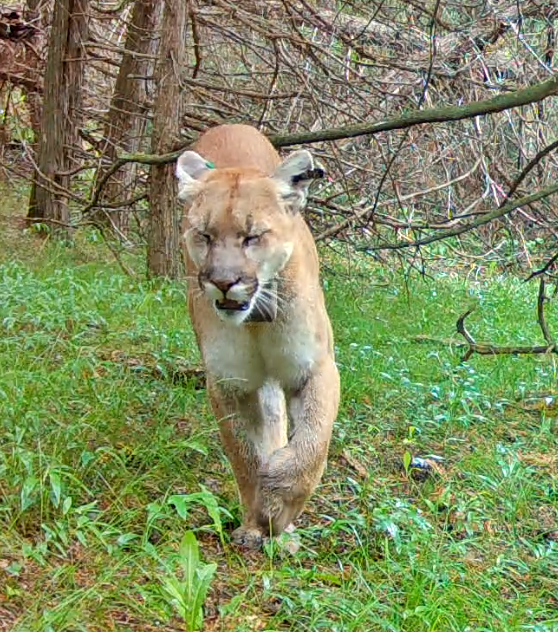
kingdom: Animalia
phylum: Chordata
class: Mammalia
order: Carnivora
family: Felidae
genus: Puma
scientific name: Puma concolor
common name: Puma
